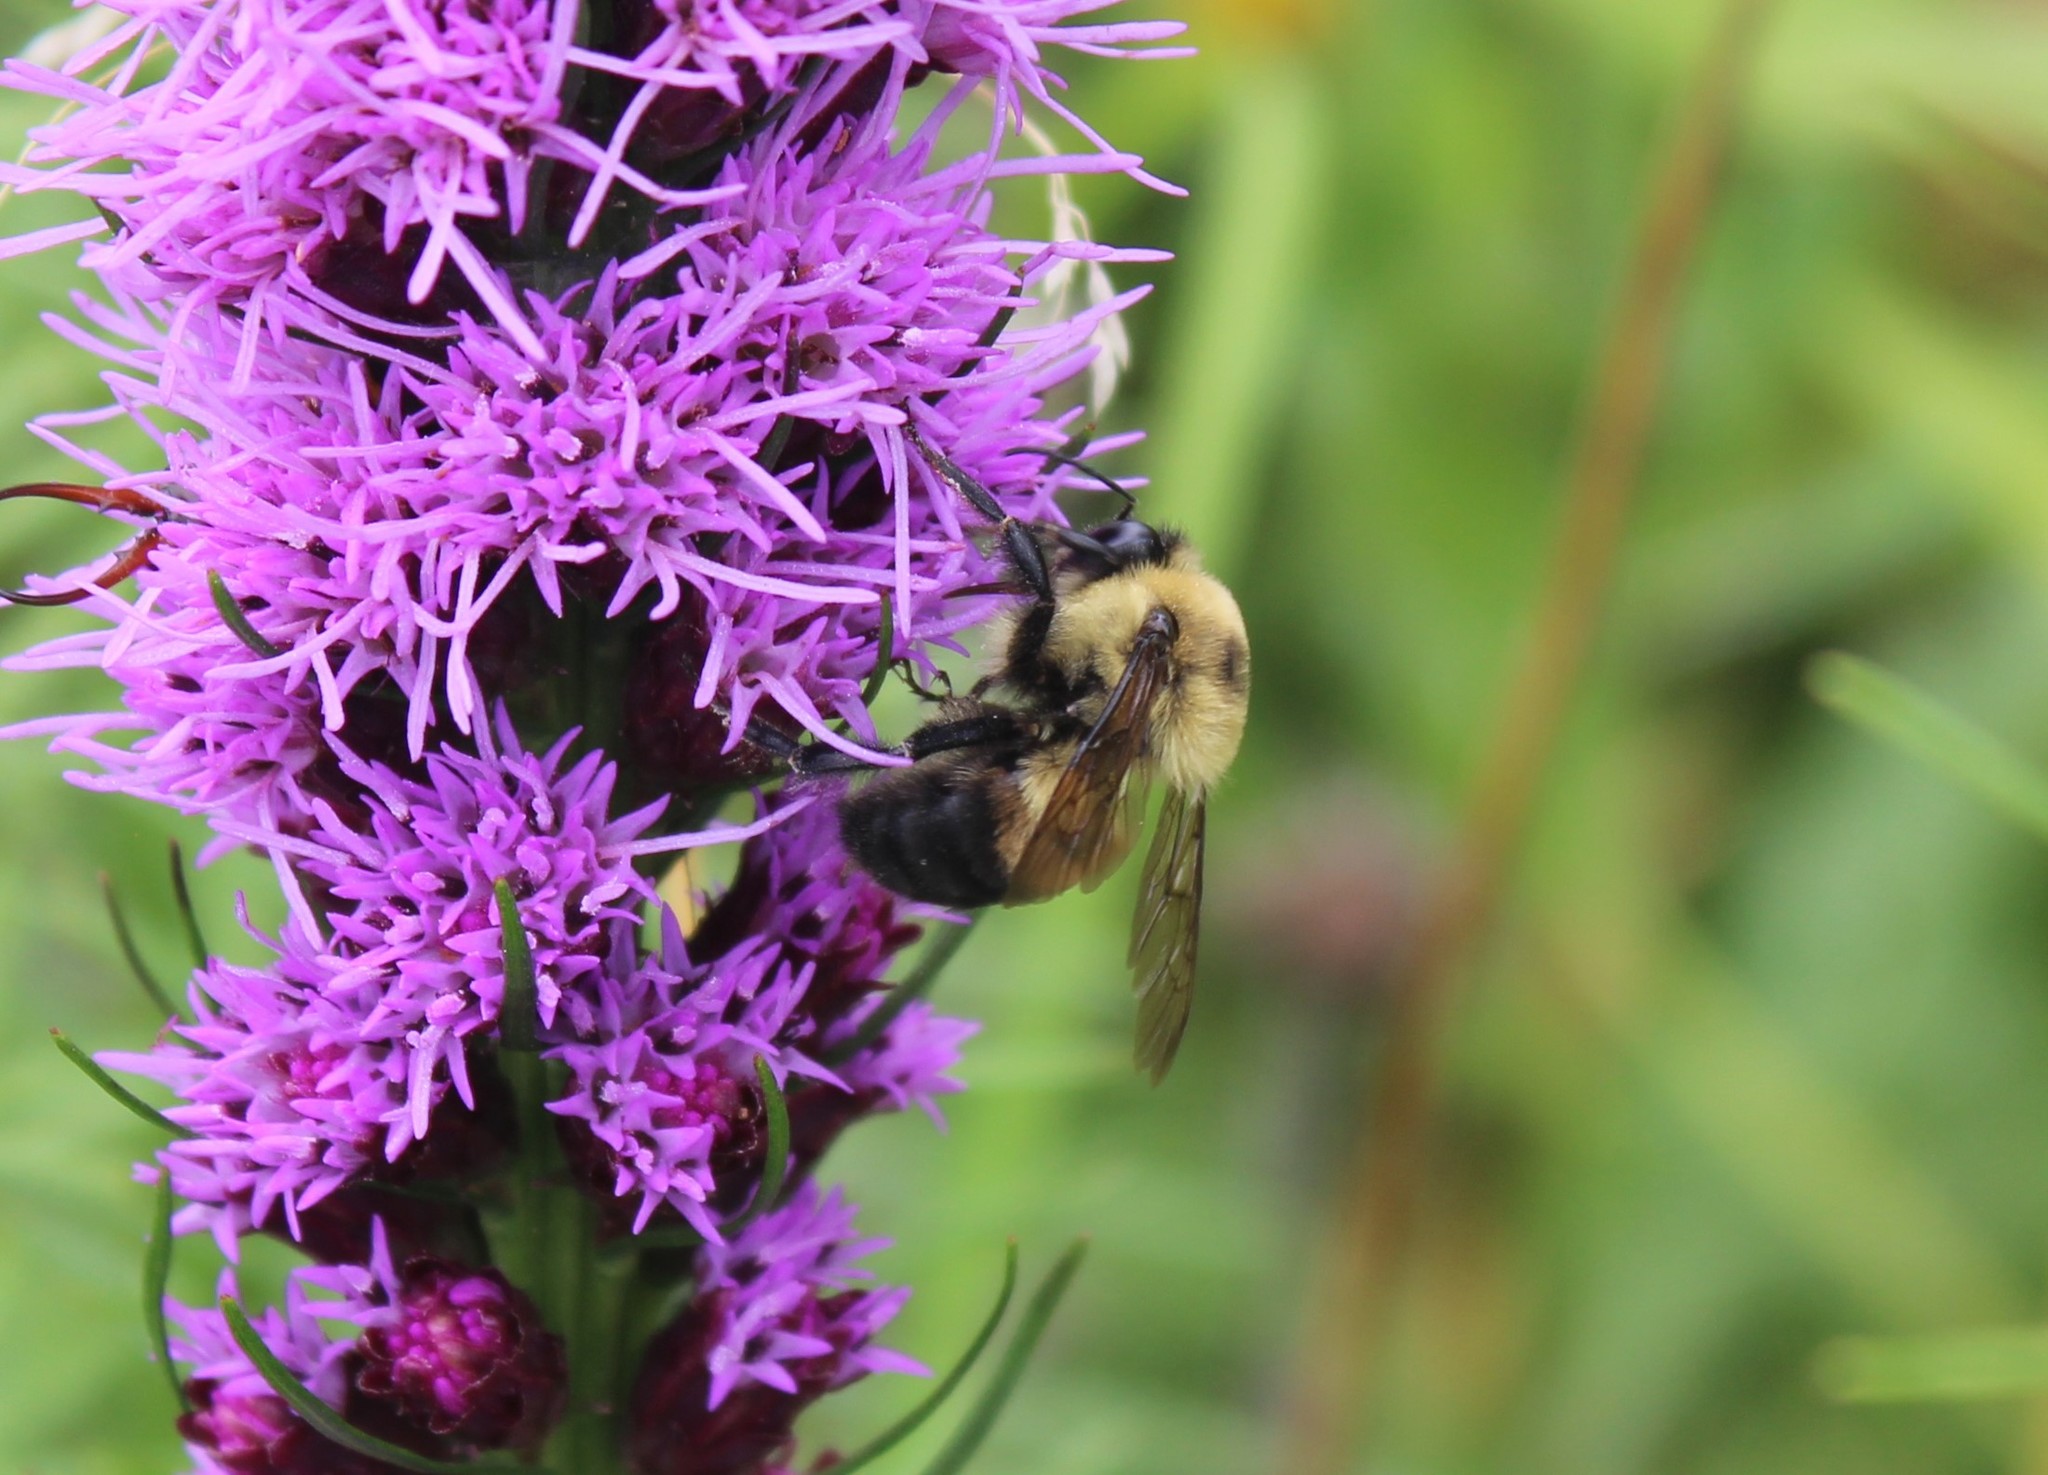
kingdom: Animalia
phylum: Arthropoda
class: Insecta
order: Hymenoptera
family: Apidae
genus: Bombus
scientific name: Bombus griseocollis
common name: Brown-belted bumble bee
